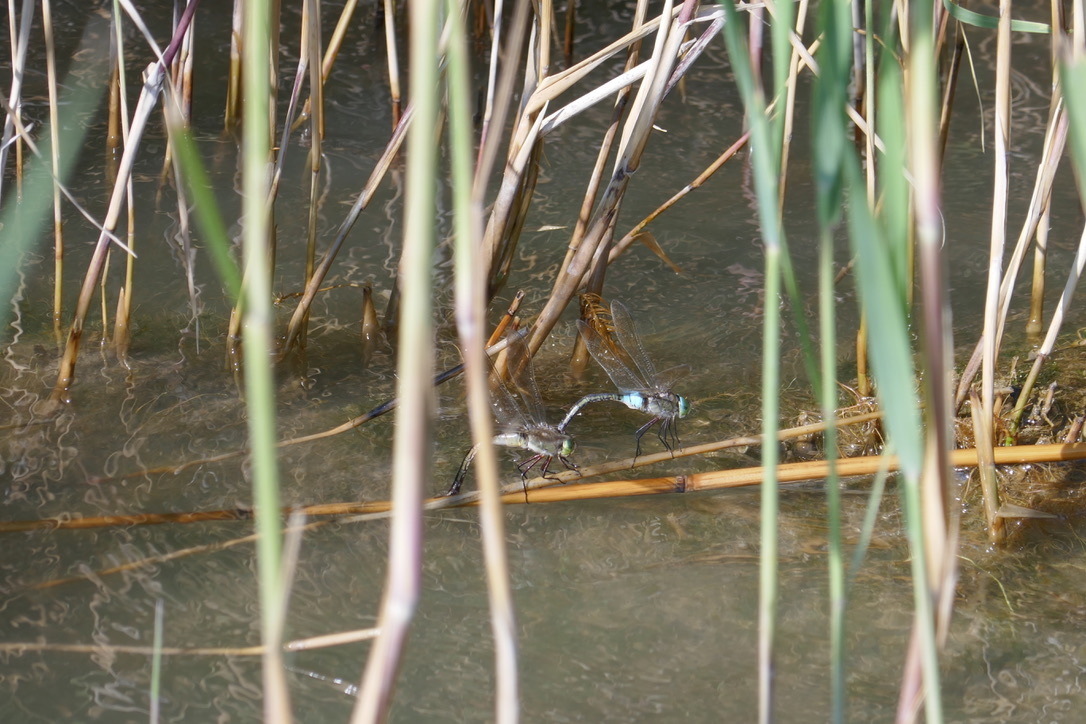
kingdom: Animalia
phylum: Arthropoda
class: Insecta
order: Odonata
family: Aeshnidae
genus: Anax
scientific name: Anax parthenope
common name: Lesser emperor
